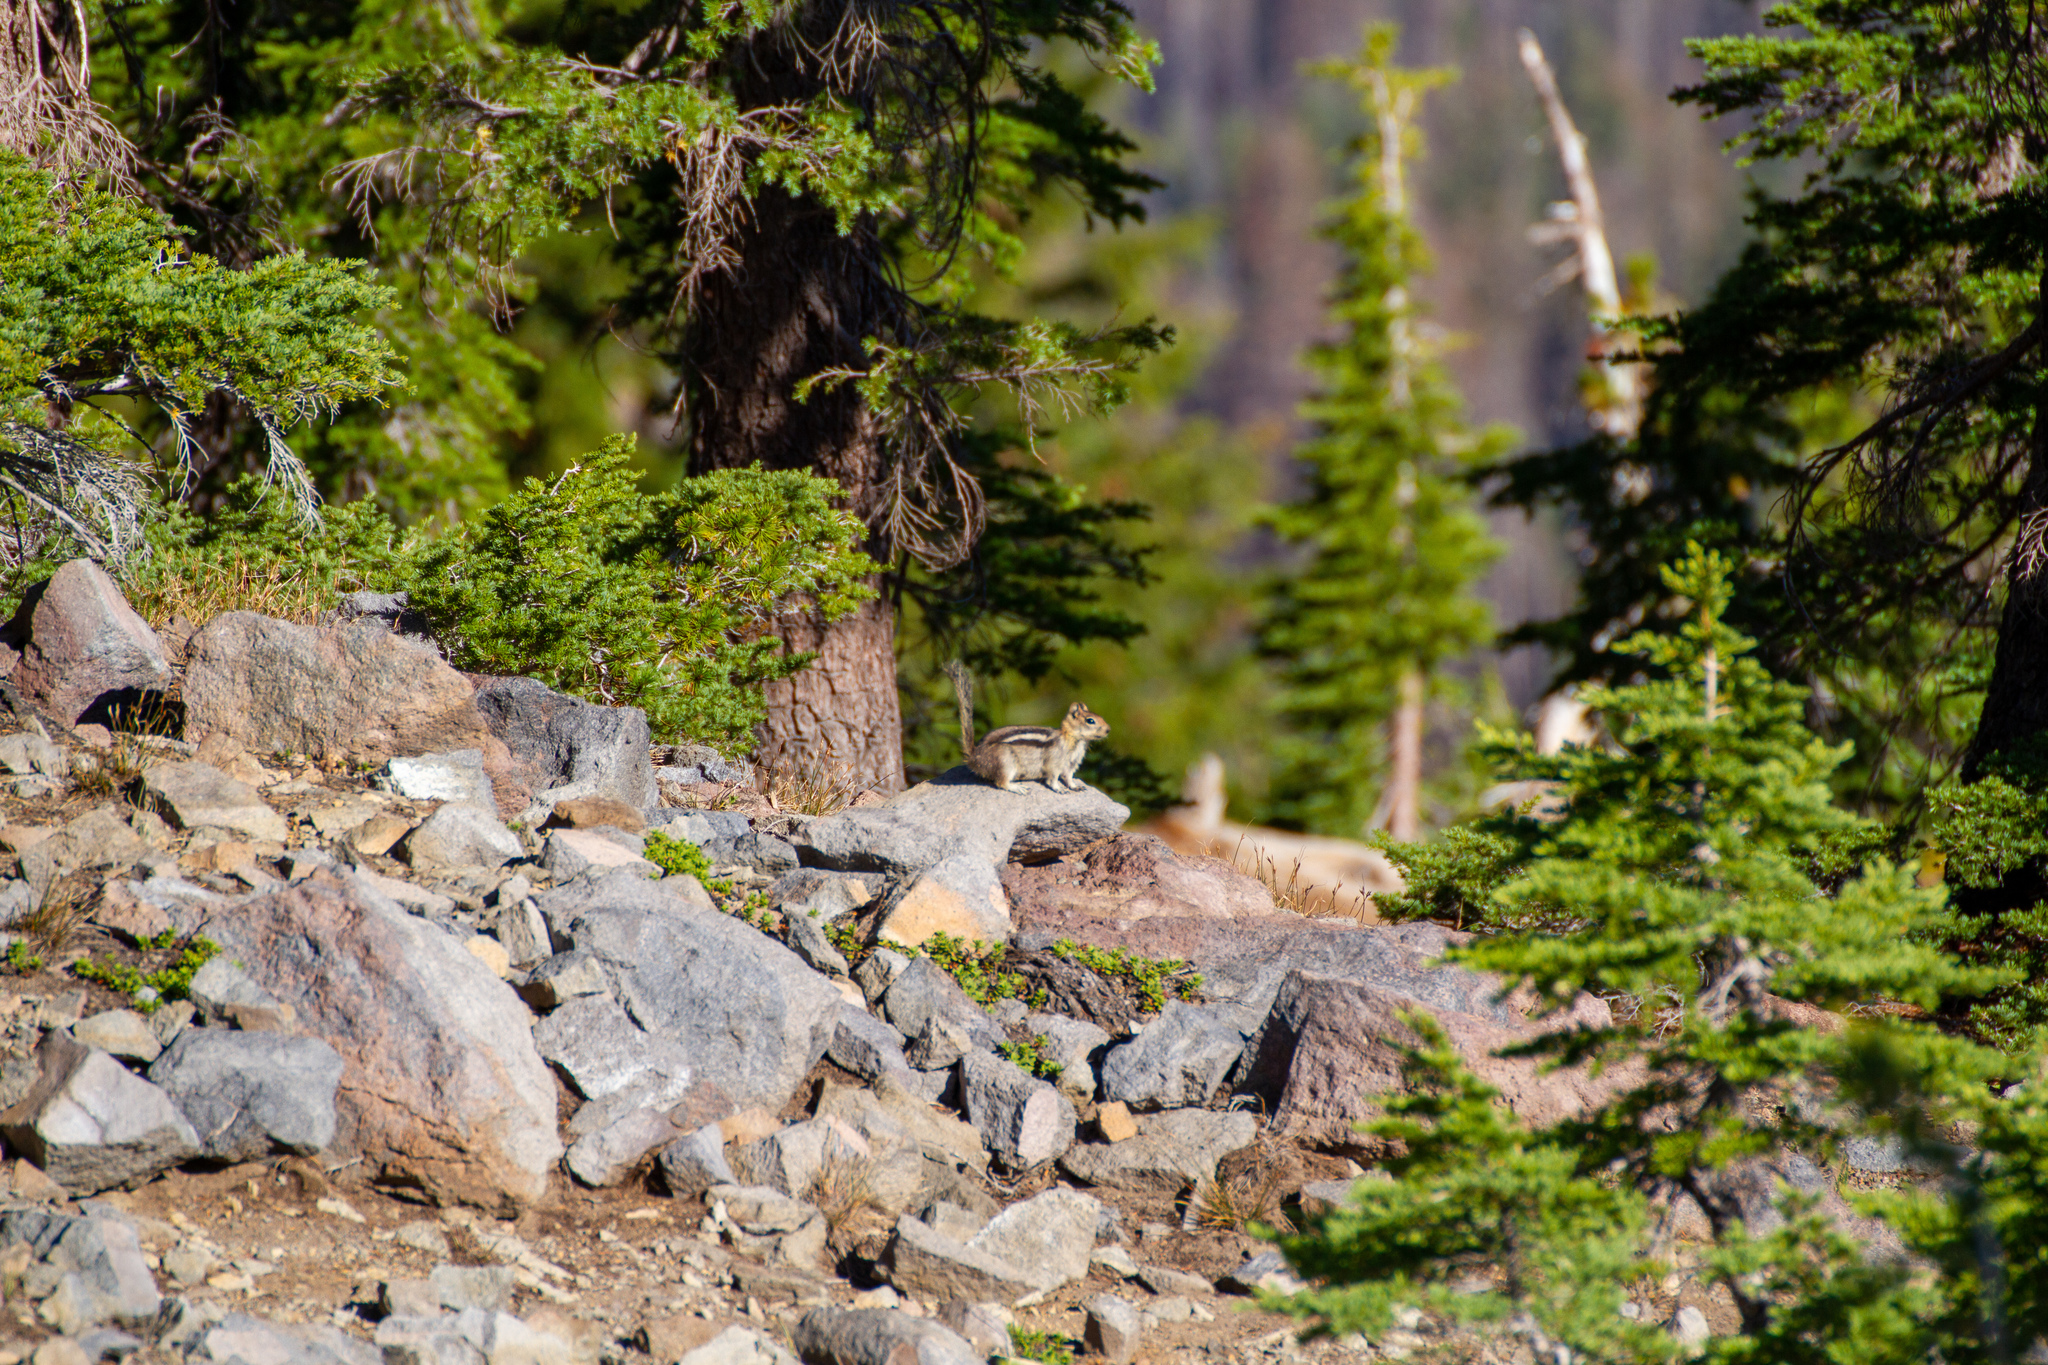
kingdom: Animalia
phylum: Chordata
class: Mammalia
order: Rodentia
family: Sciuridae
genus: Callospermophilus
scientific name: Callospermophilus lateralis
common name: Golden-mantled ground squirrel
